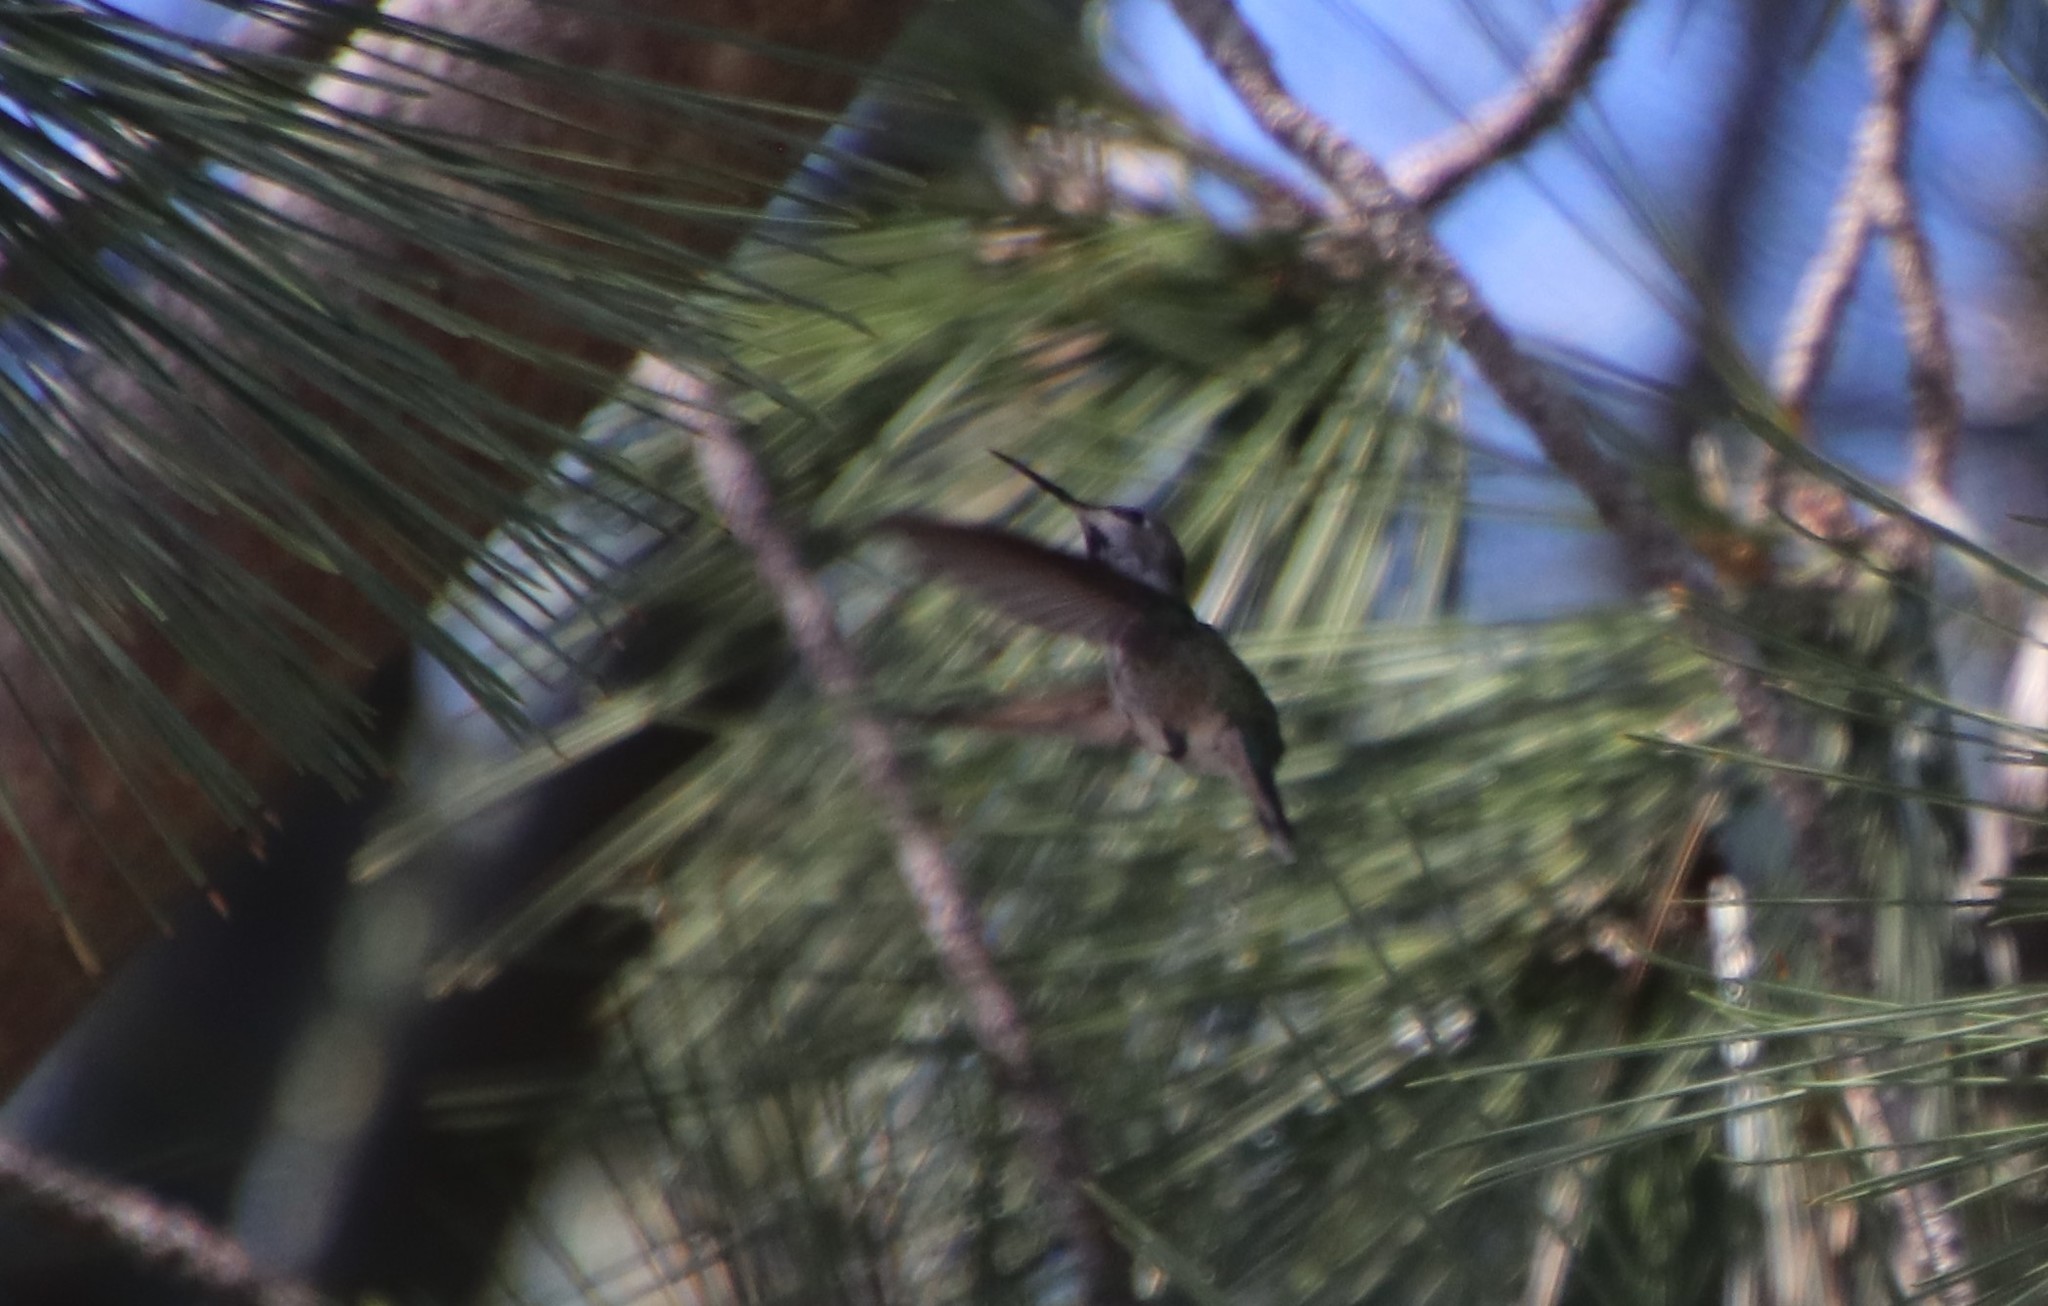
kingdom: Animalia
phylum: Chordata
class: Aves
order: Apodiformes
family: Trochilidae
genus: Calypte
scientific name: Calypte anna
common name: Anna's hummingbird
